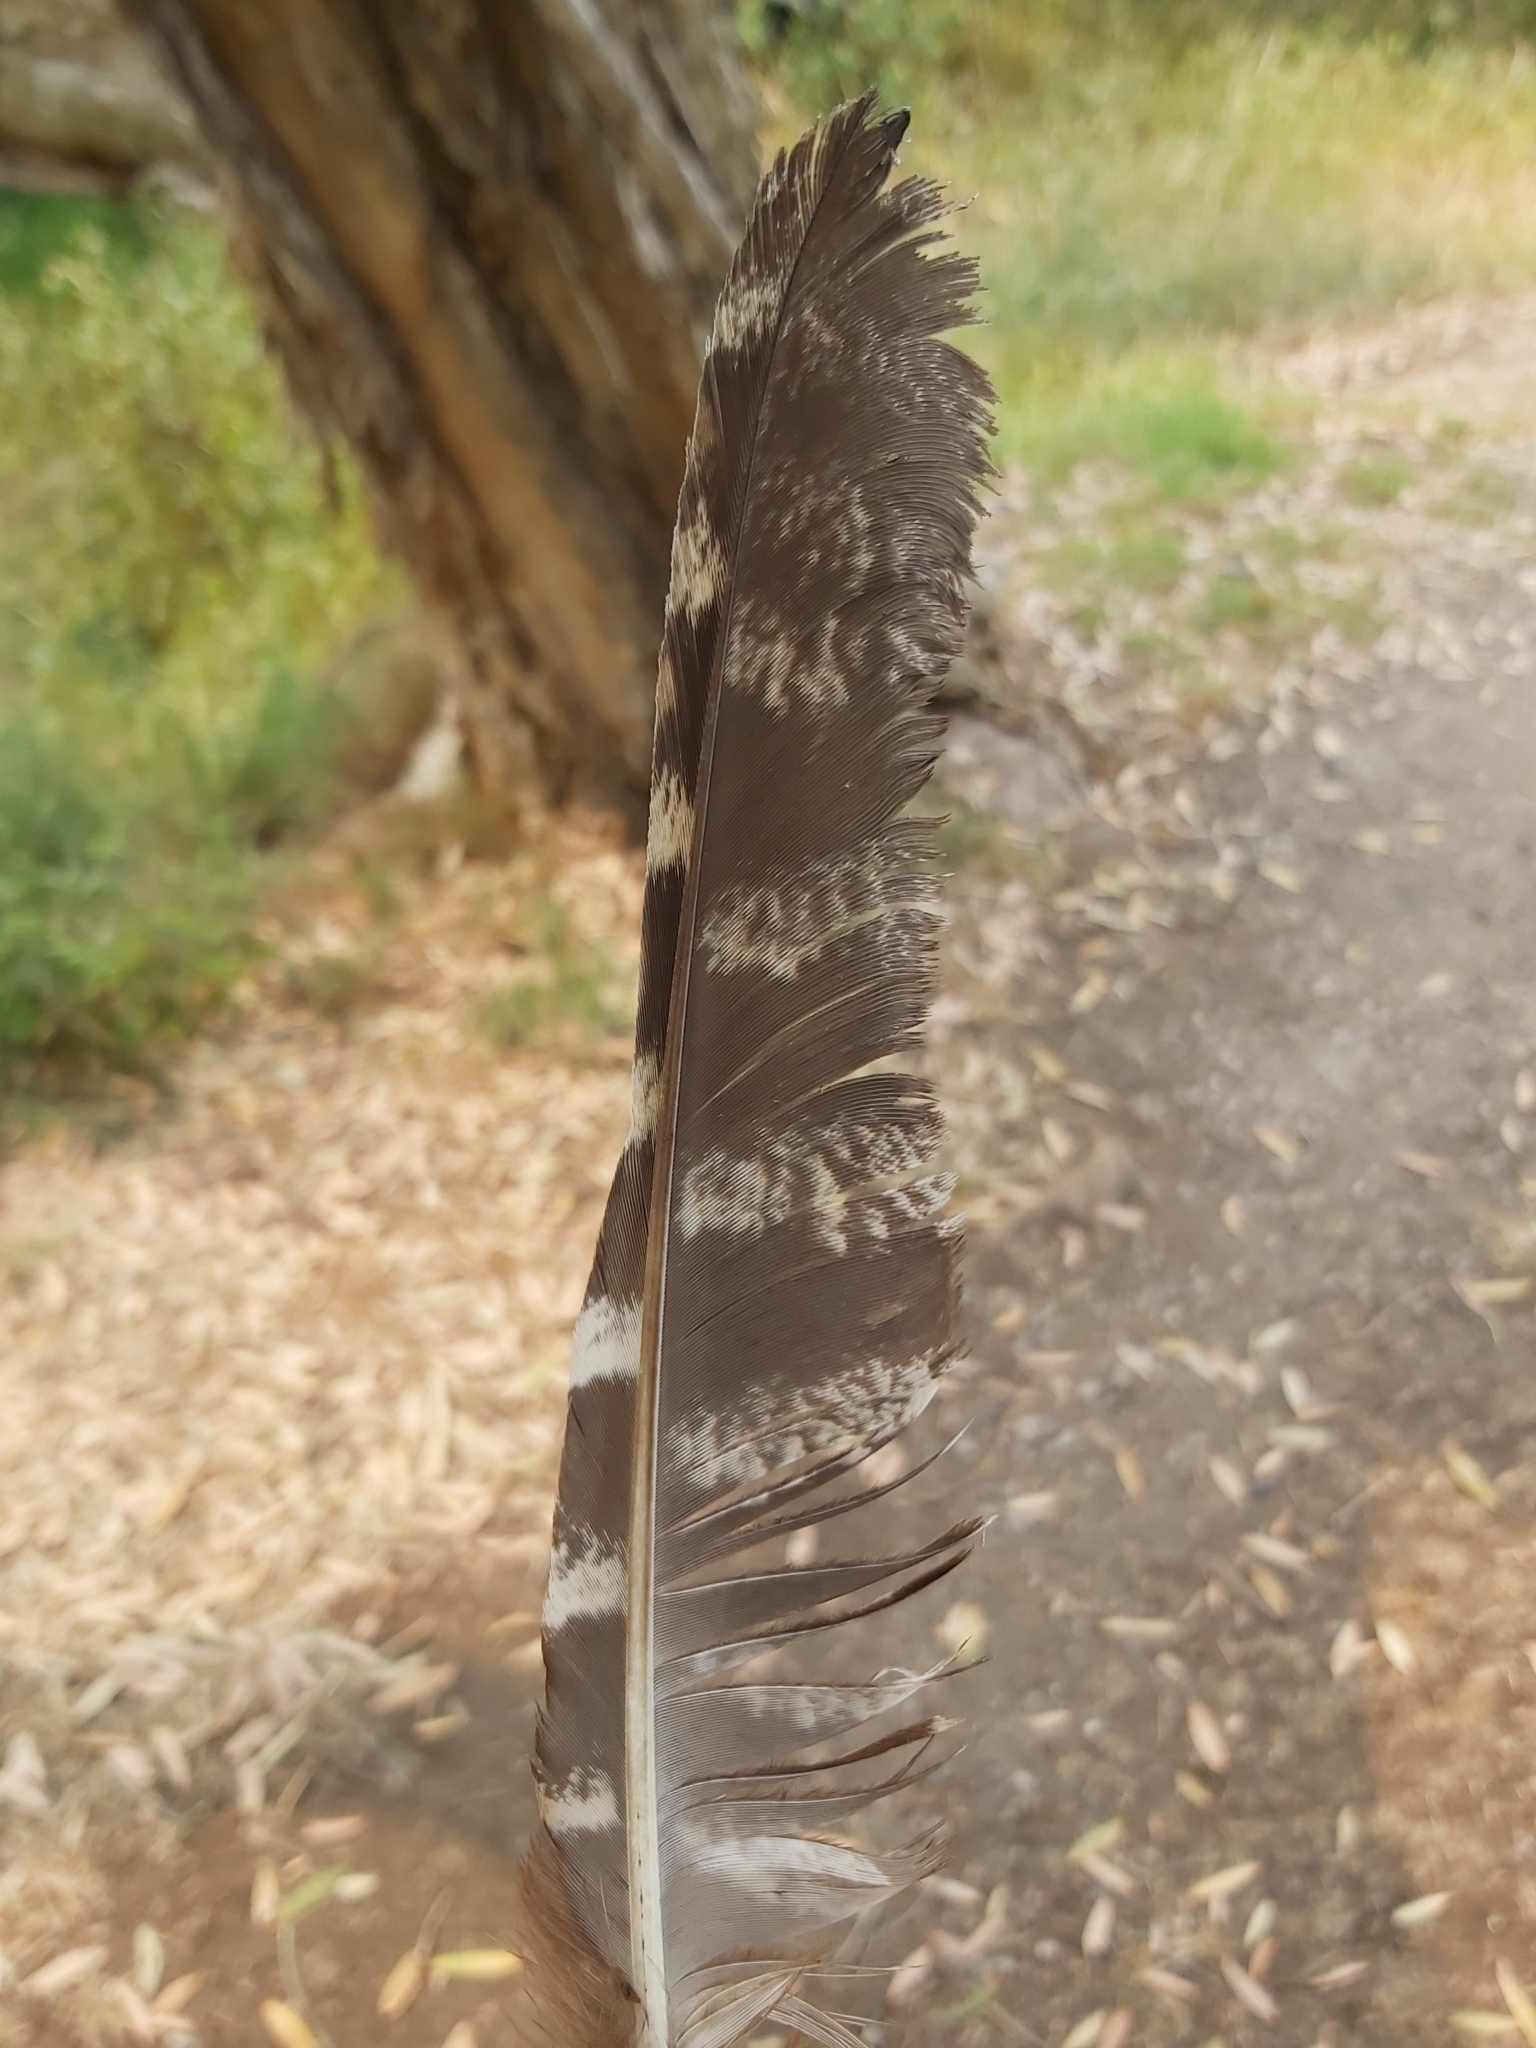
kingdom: Animalia
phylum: Chordata
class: Aves
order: Caprimulgiformes
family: Podargidae
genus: Podargus
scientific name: Podargus strigoides
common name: Tawny frogmouth
